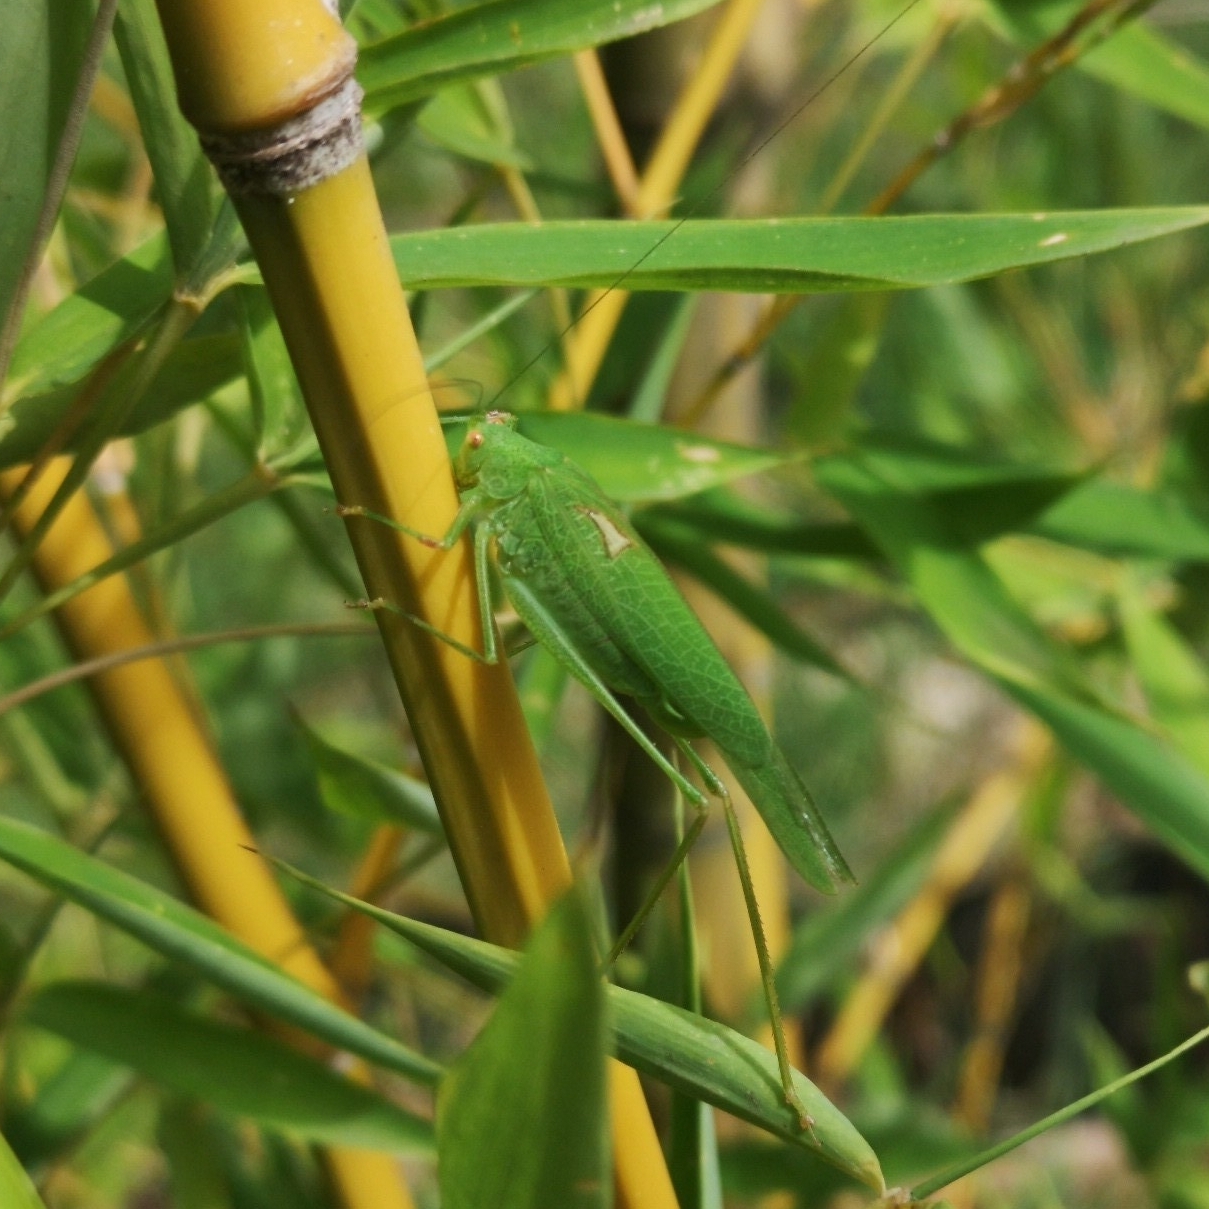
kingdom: Animalia
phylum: Arthropoda
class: Insecta
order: Orthoptera
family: Tettigoniidae
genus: Phaneroptera
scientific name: Phaneroptera nana
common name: Southern sickle bush-cricket
